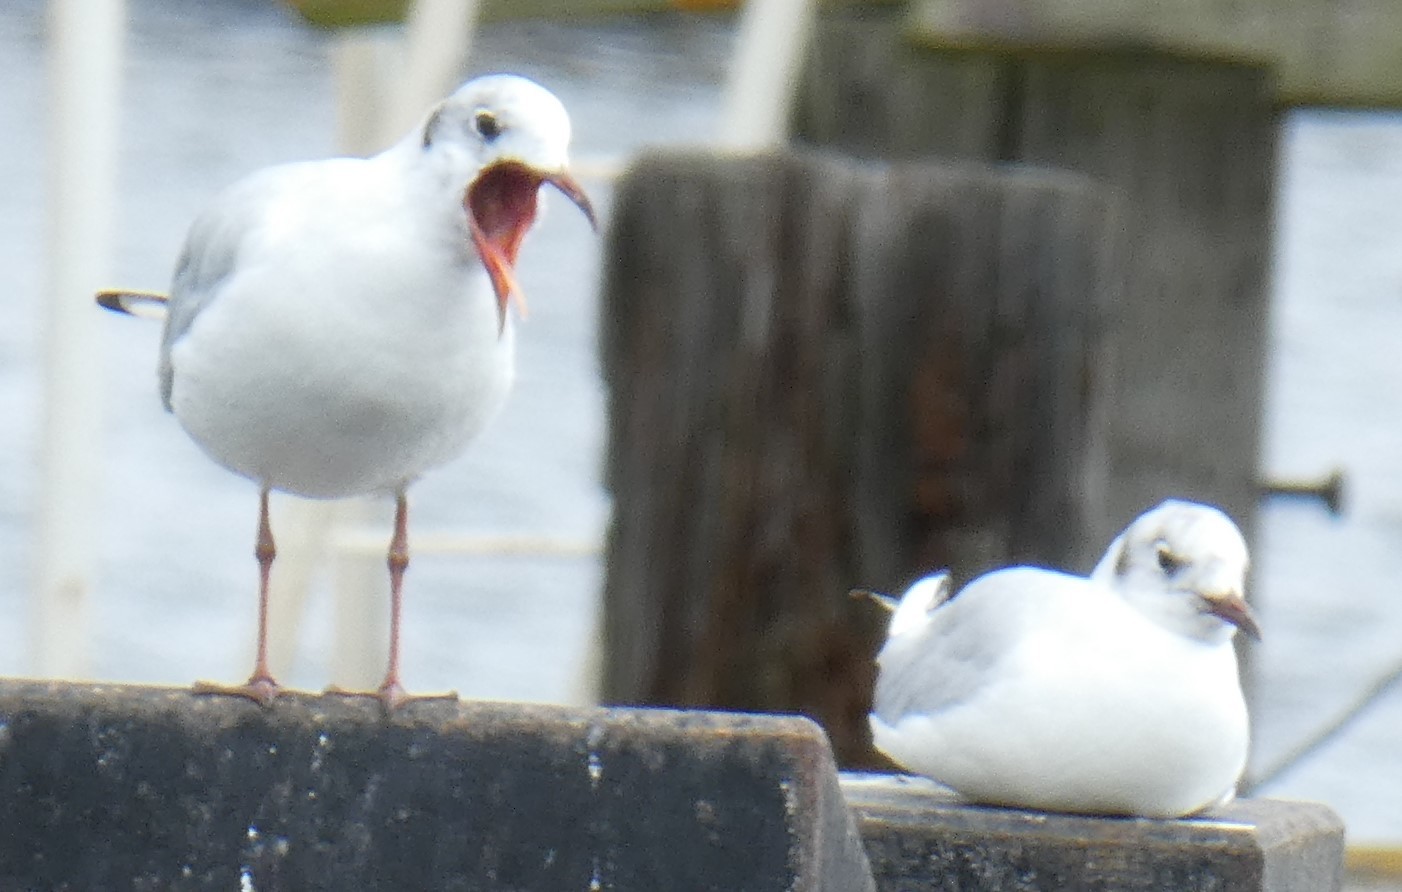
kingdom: Animalia
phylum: Chordata
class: Aves
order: Charadriiformes
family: Laridae
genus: Chroicocephalus
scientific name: Chroicocephalus ridibundus
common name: Black-headed gull
